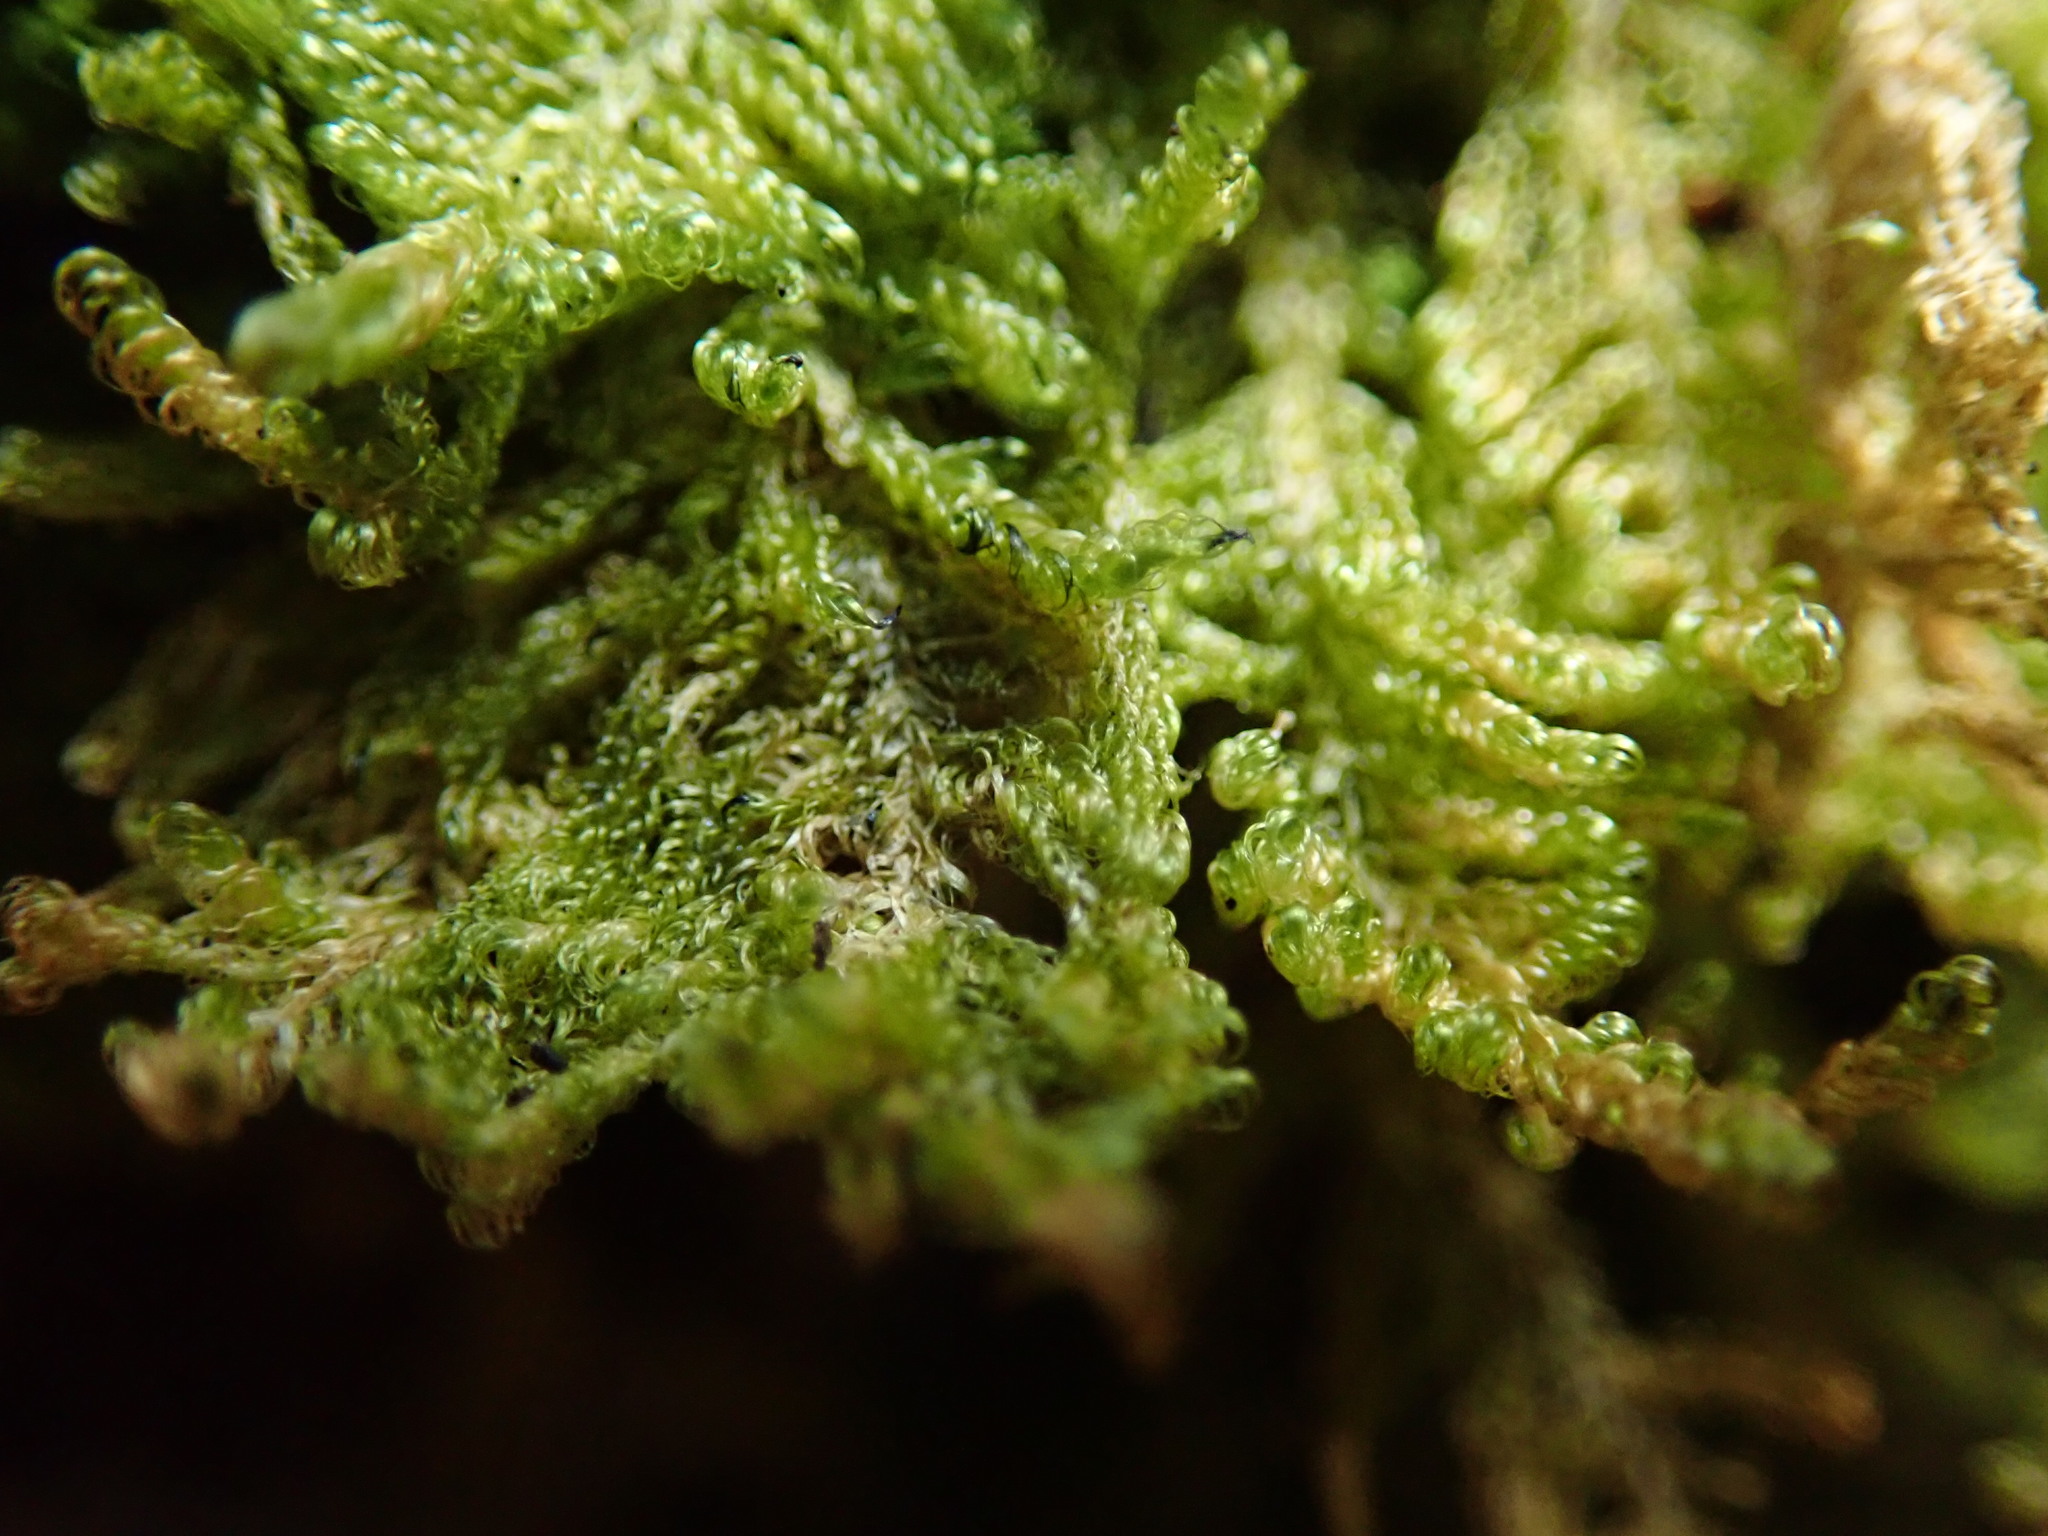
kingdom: Plantae
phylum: Bryophyta
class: Bryopsida
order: Hypnales
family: Stereodontaceae
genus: Stereodon
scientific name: Stereodon subimponens
